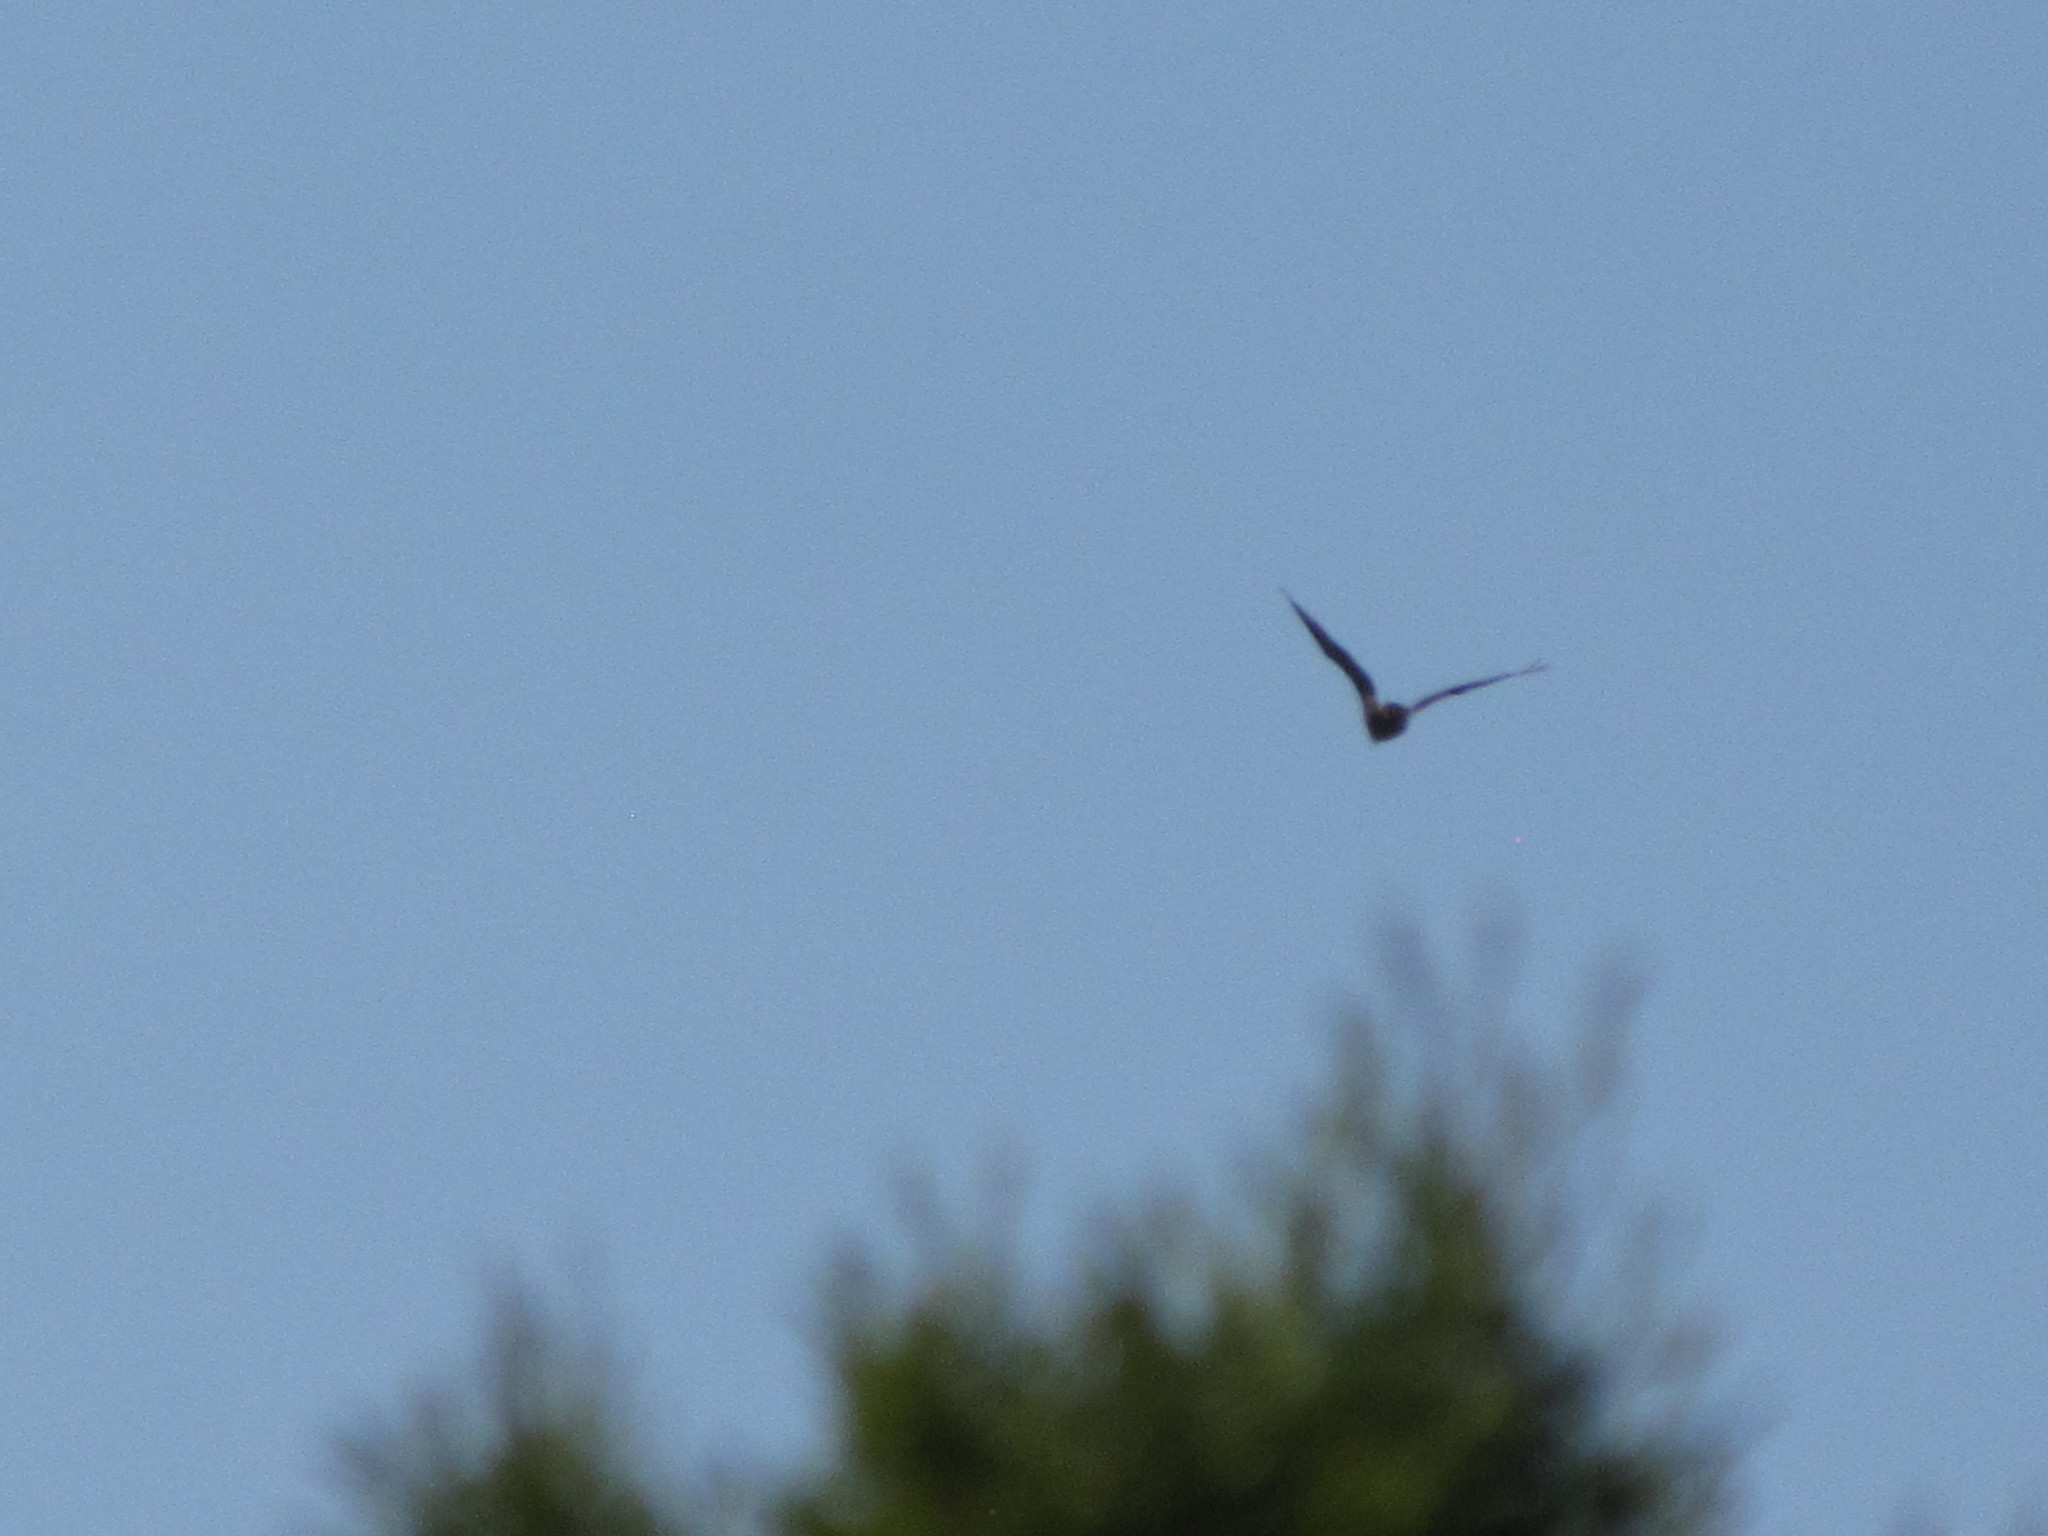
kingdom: Animalia
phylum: Chordata
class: Aves
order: Accipitriformes
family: Accipitridae
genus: Haliaeetus
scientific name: Haliaeetus leucocephalus
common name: Bald eagle
